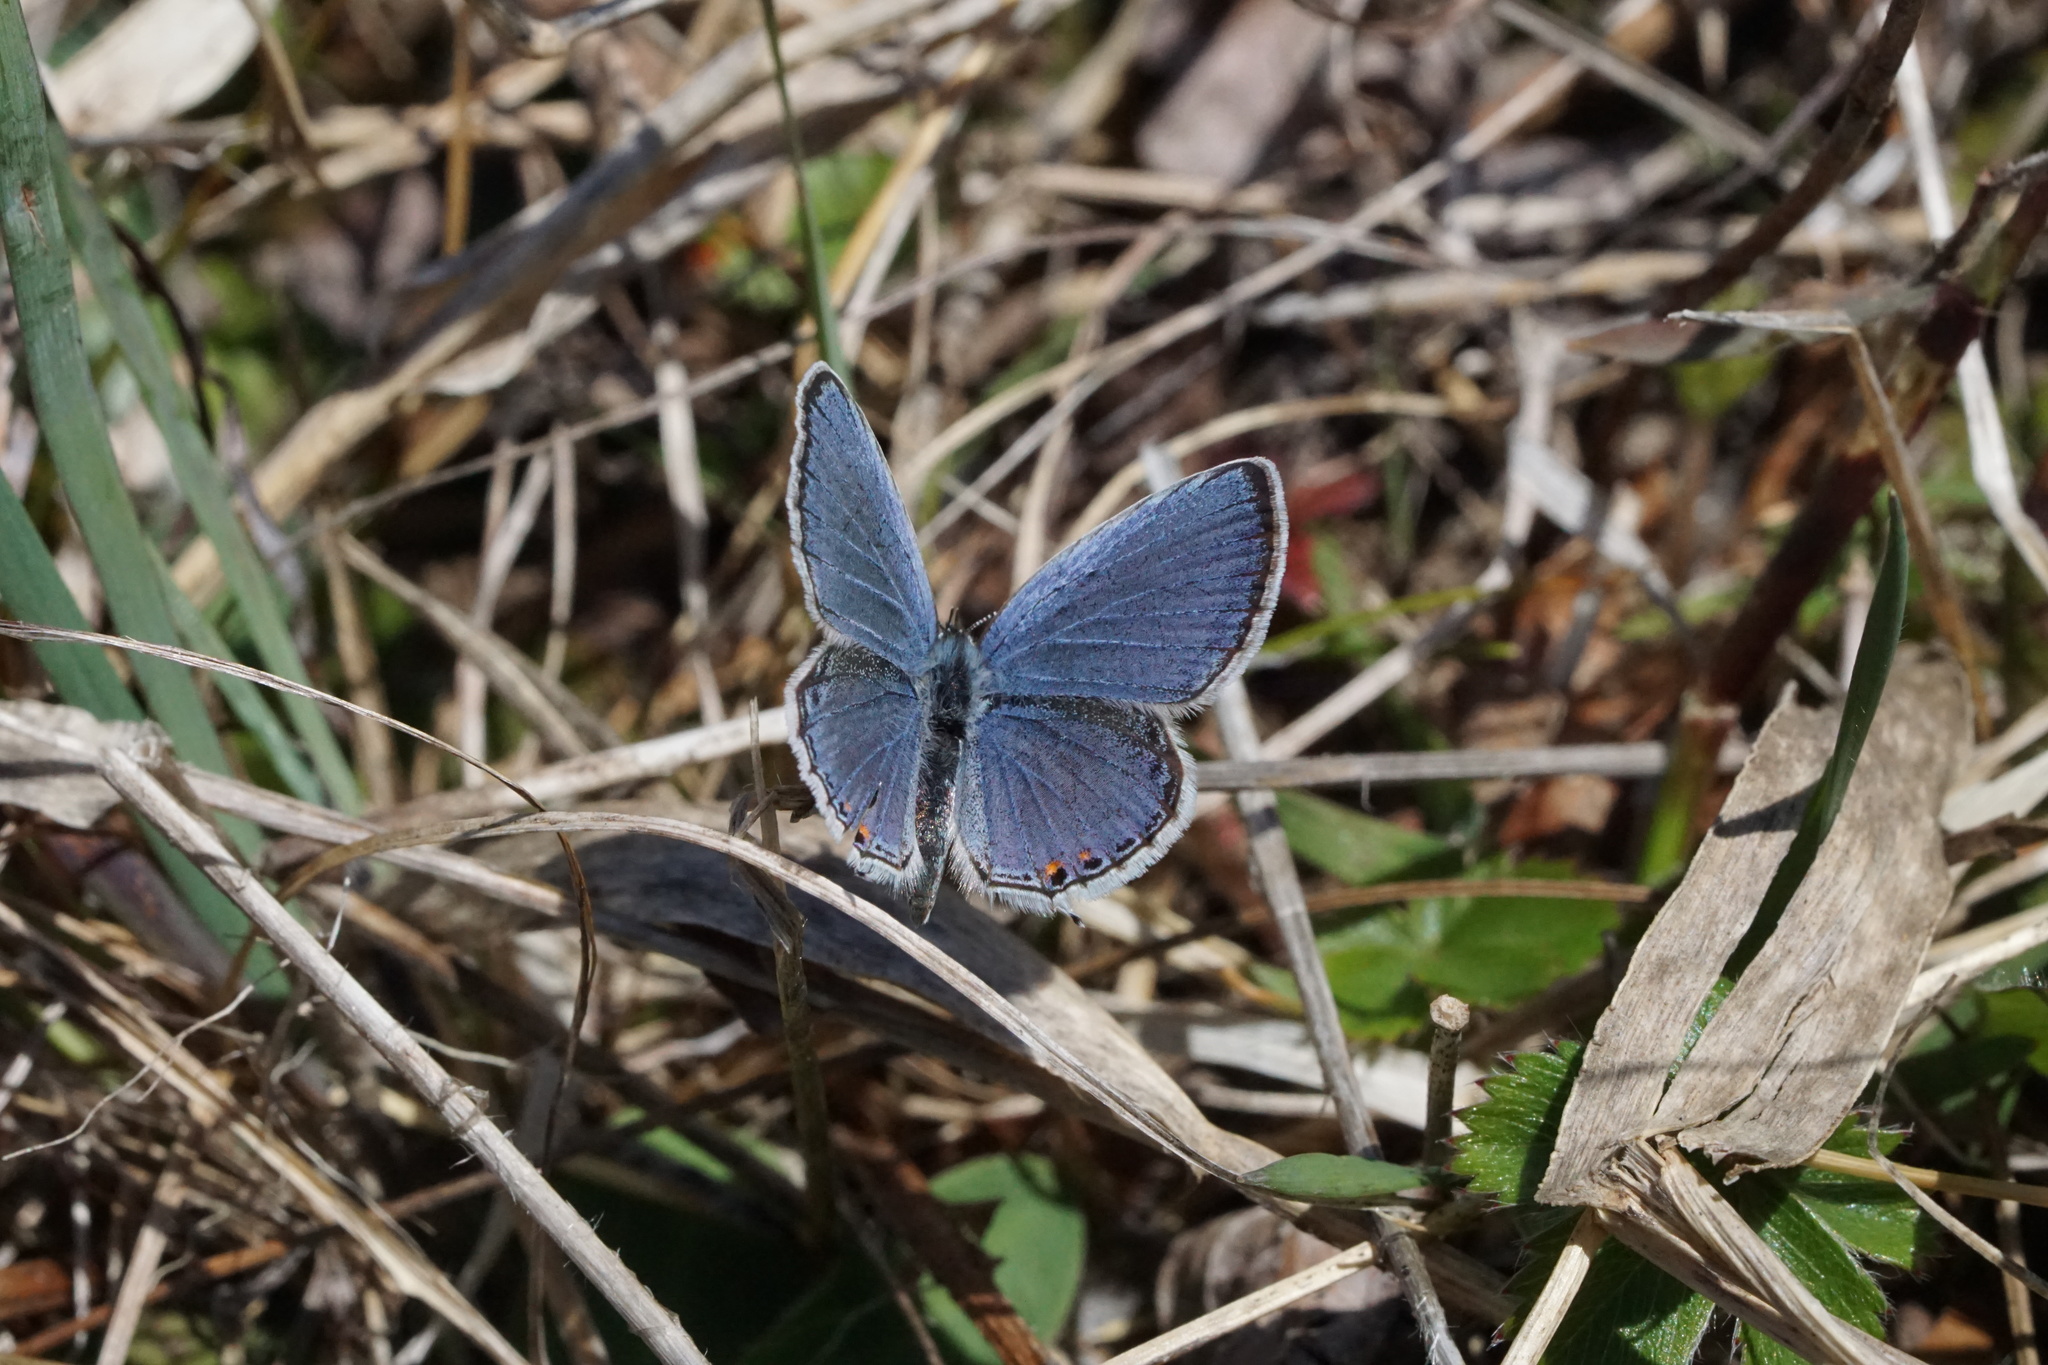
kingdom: Animalia
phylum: Arthropoda
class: Insecta
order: Lepidoptera
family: Lycaenidae
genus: Elkalyce
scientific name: Elkalyce comyntas
